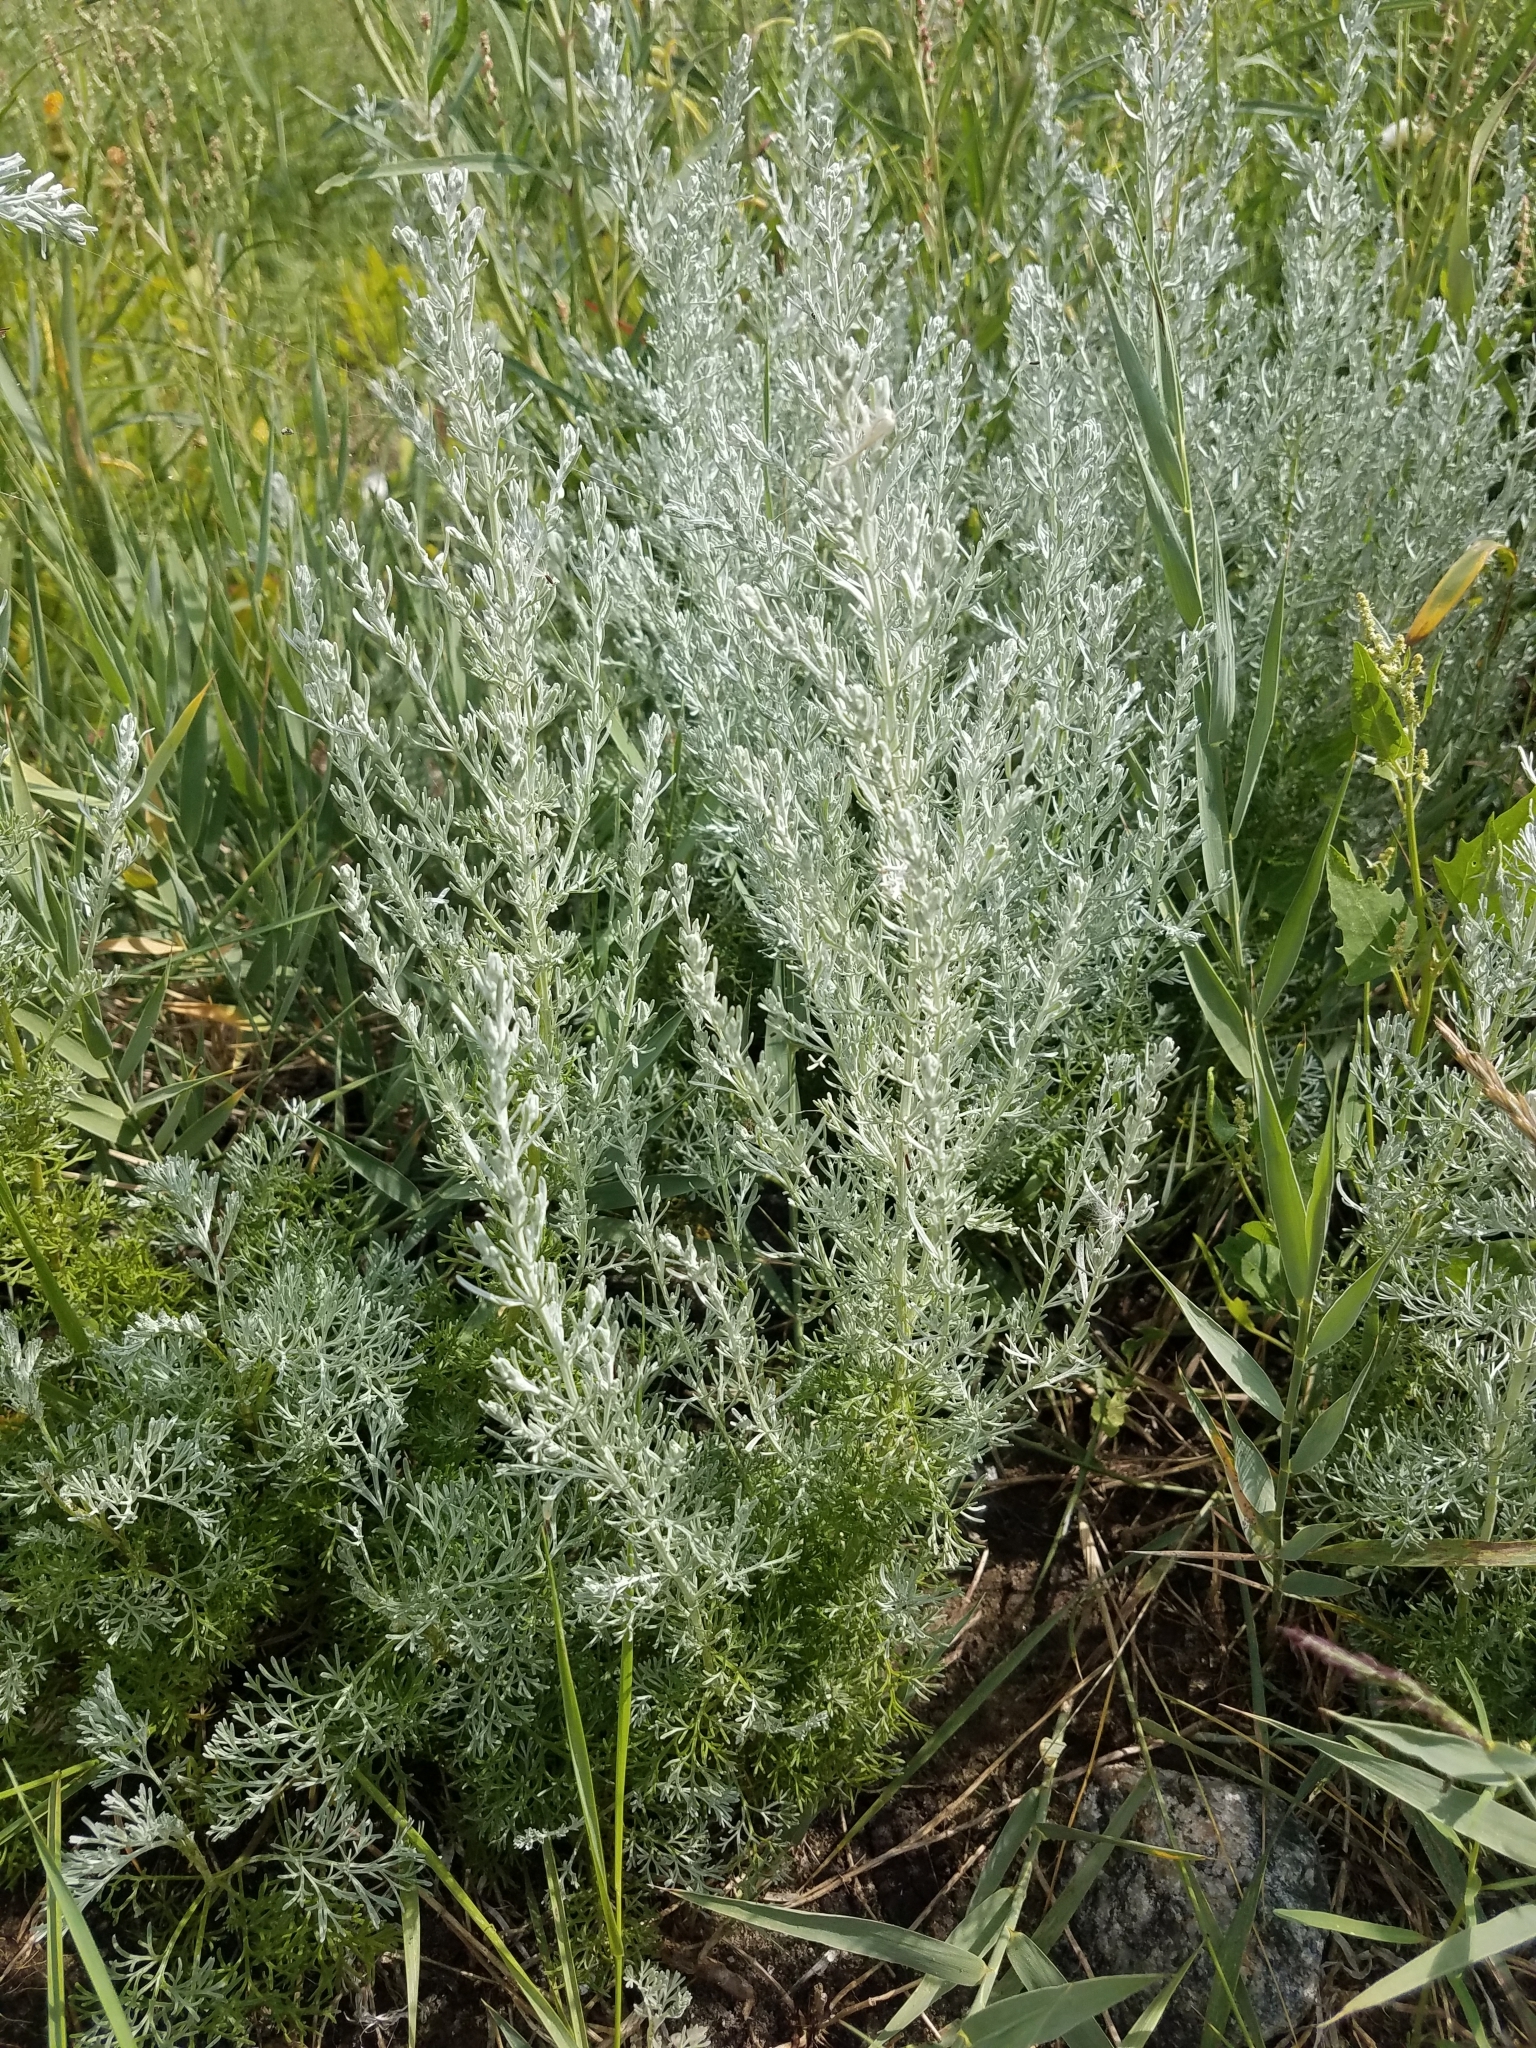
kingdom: Plantae
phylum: Tracheophyta
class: Magnoliopsida
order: Asterales
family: Asteraceae
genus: Artemisia
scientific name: Artemisia maritima
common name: Wormseed
